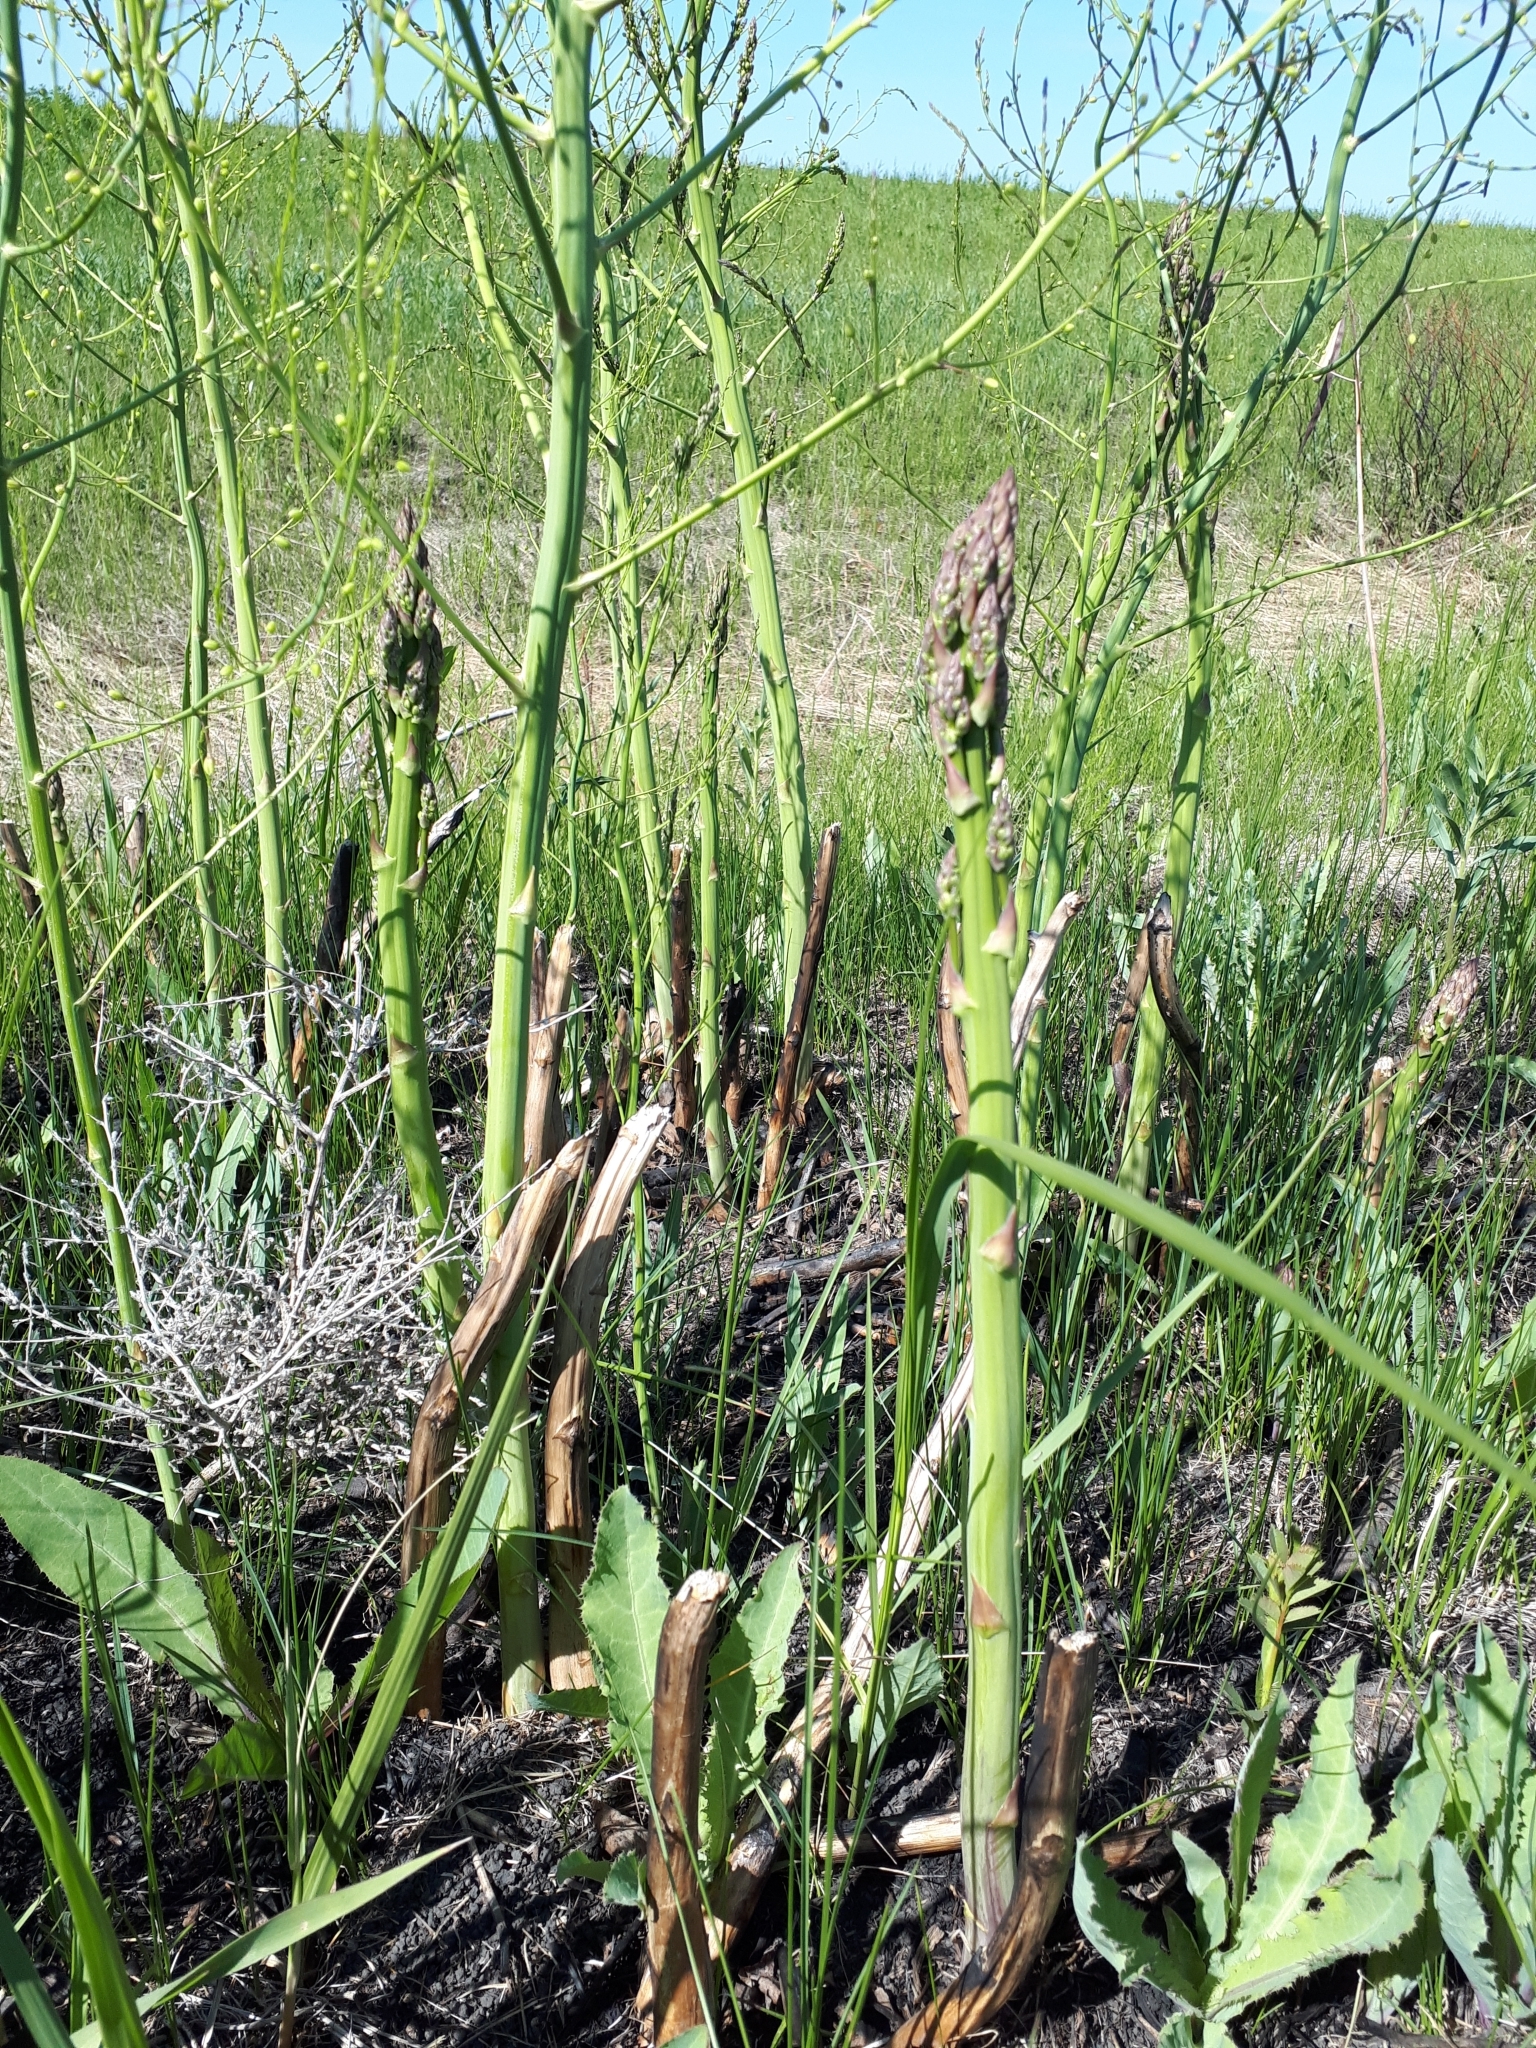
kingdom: Plantae
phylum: Tracheophyta
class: Liliopsida
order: Asparagales
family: Asparagaceae
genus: Asparagus
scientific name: Asparagus officinalis
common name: Garden asparagus
